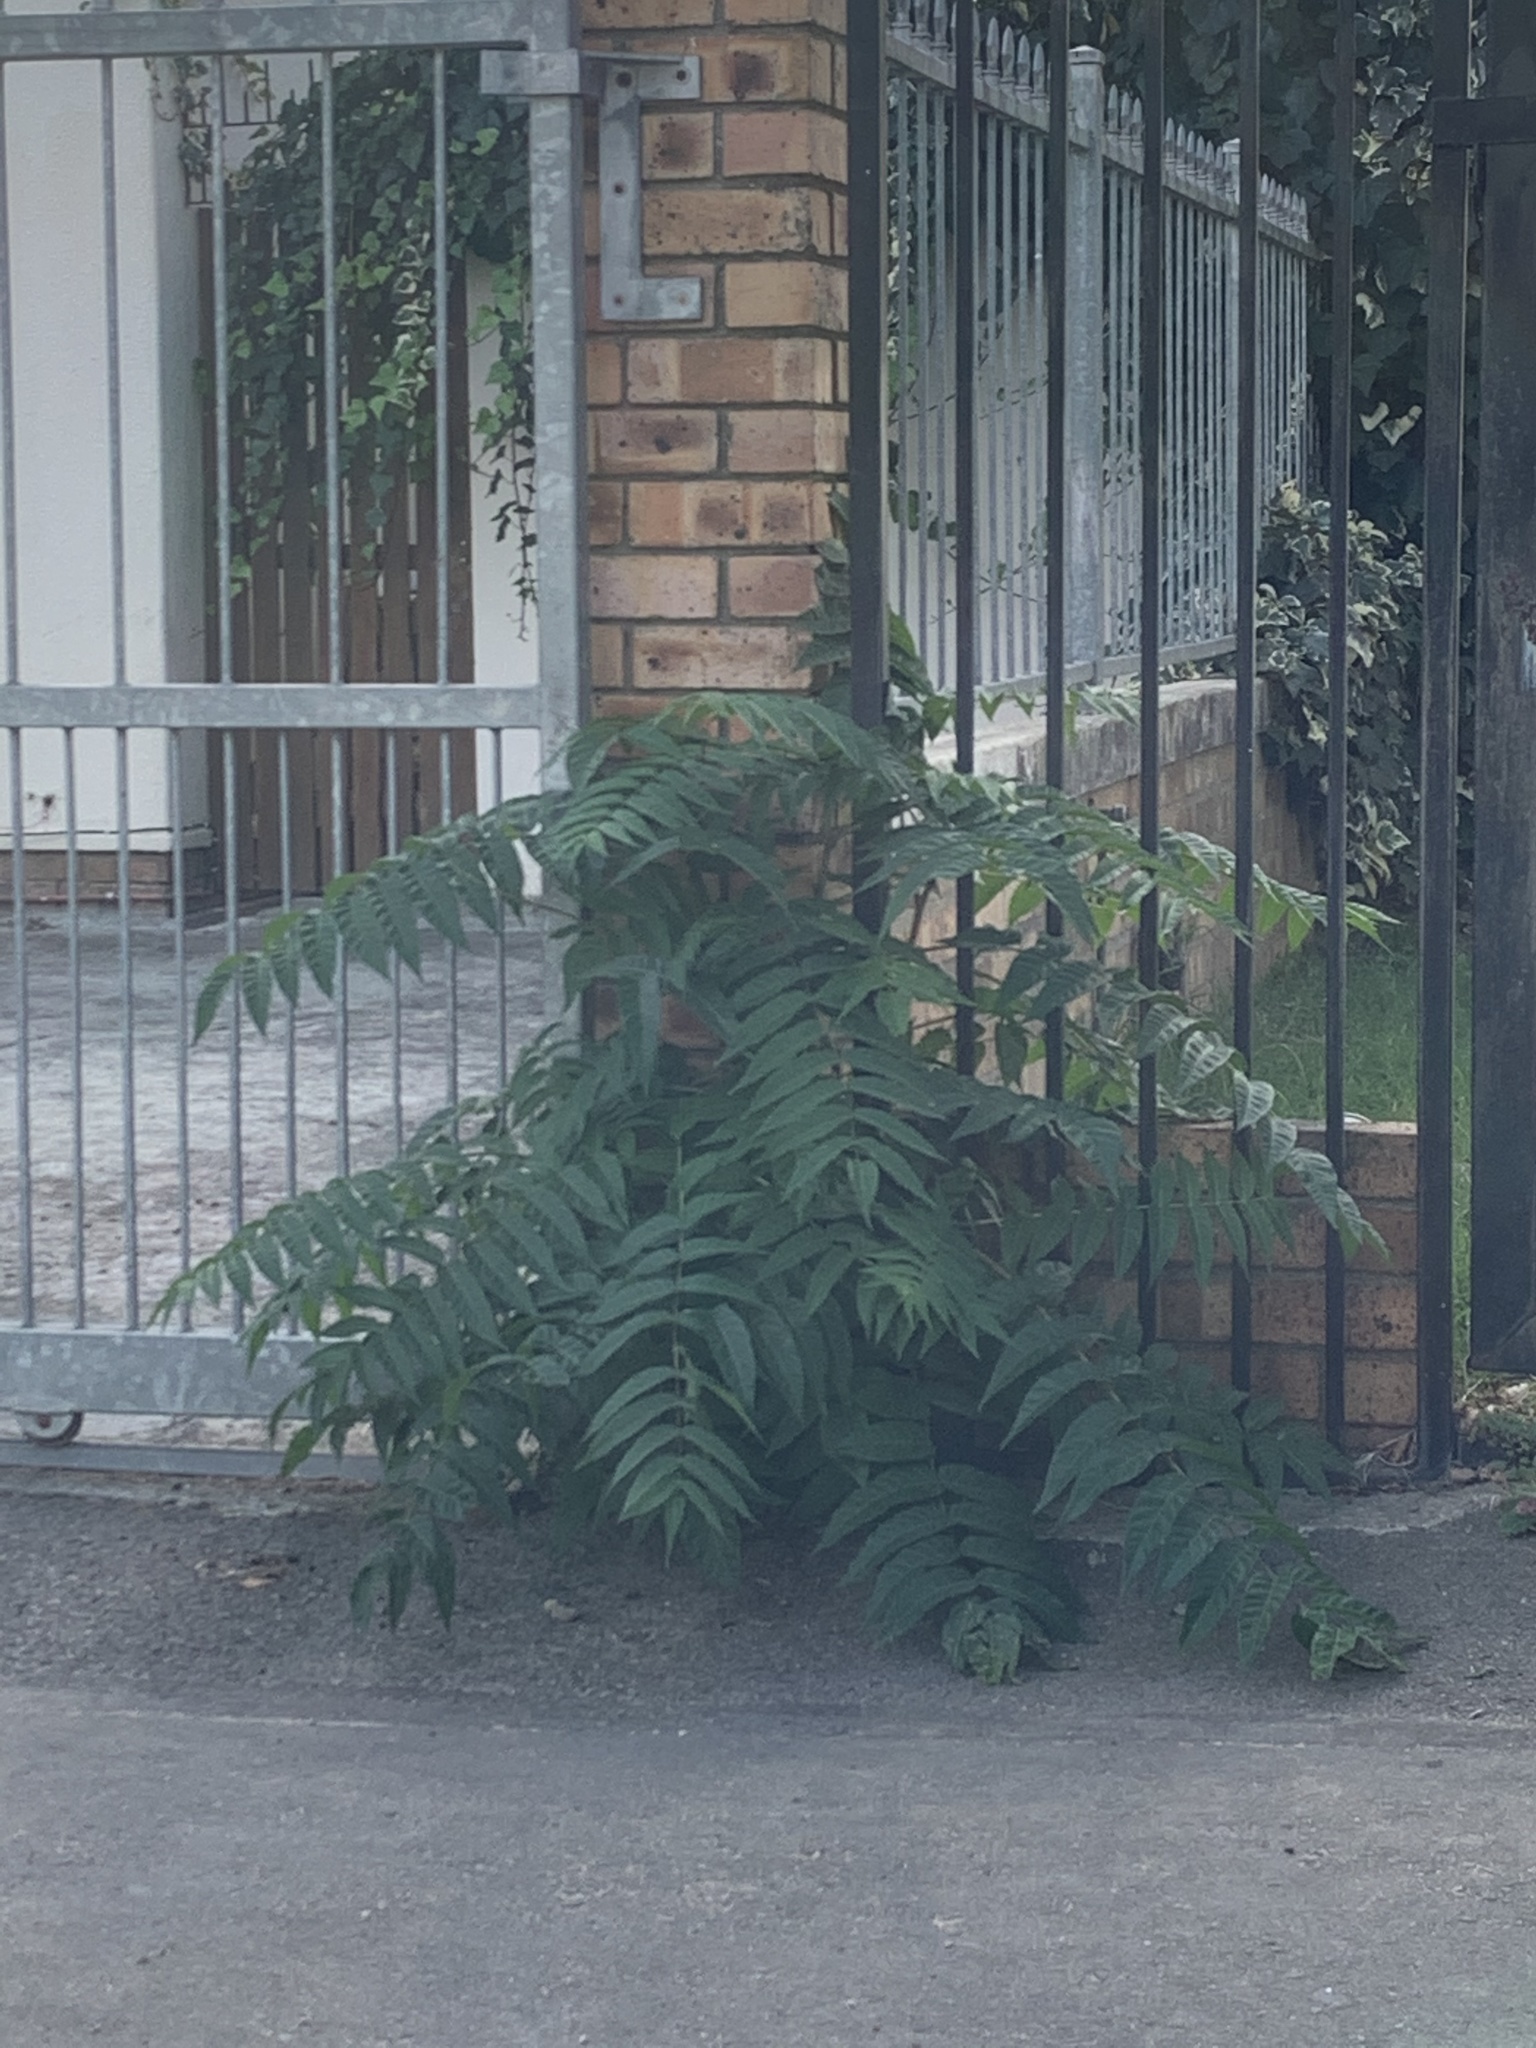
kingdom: Plantae
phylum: Tracheophyta
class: Magnoliopsida
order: Sapindales
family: Simaroubaceae
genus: Ailanthus
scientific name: Ailanthus altissima
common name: Tree-of-heaven
